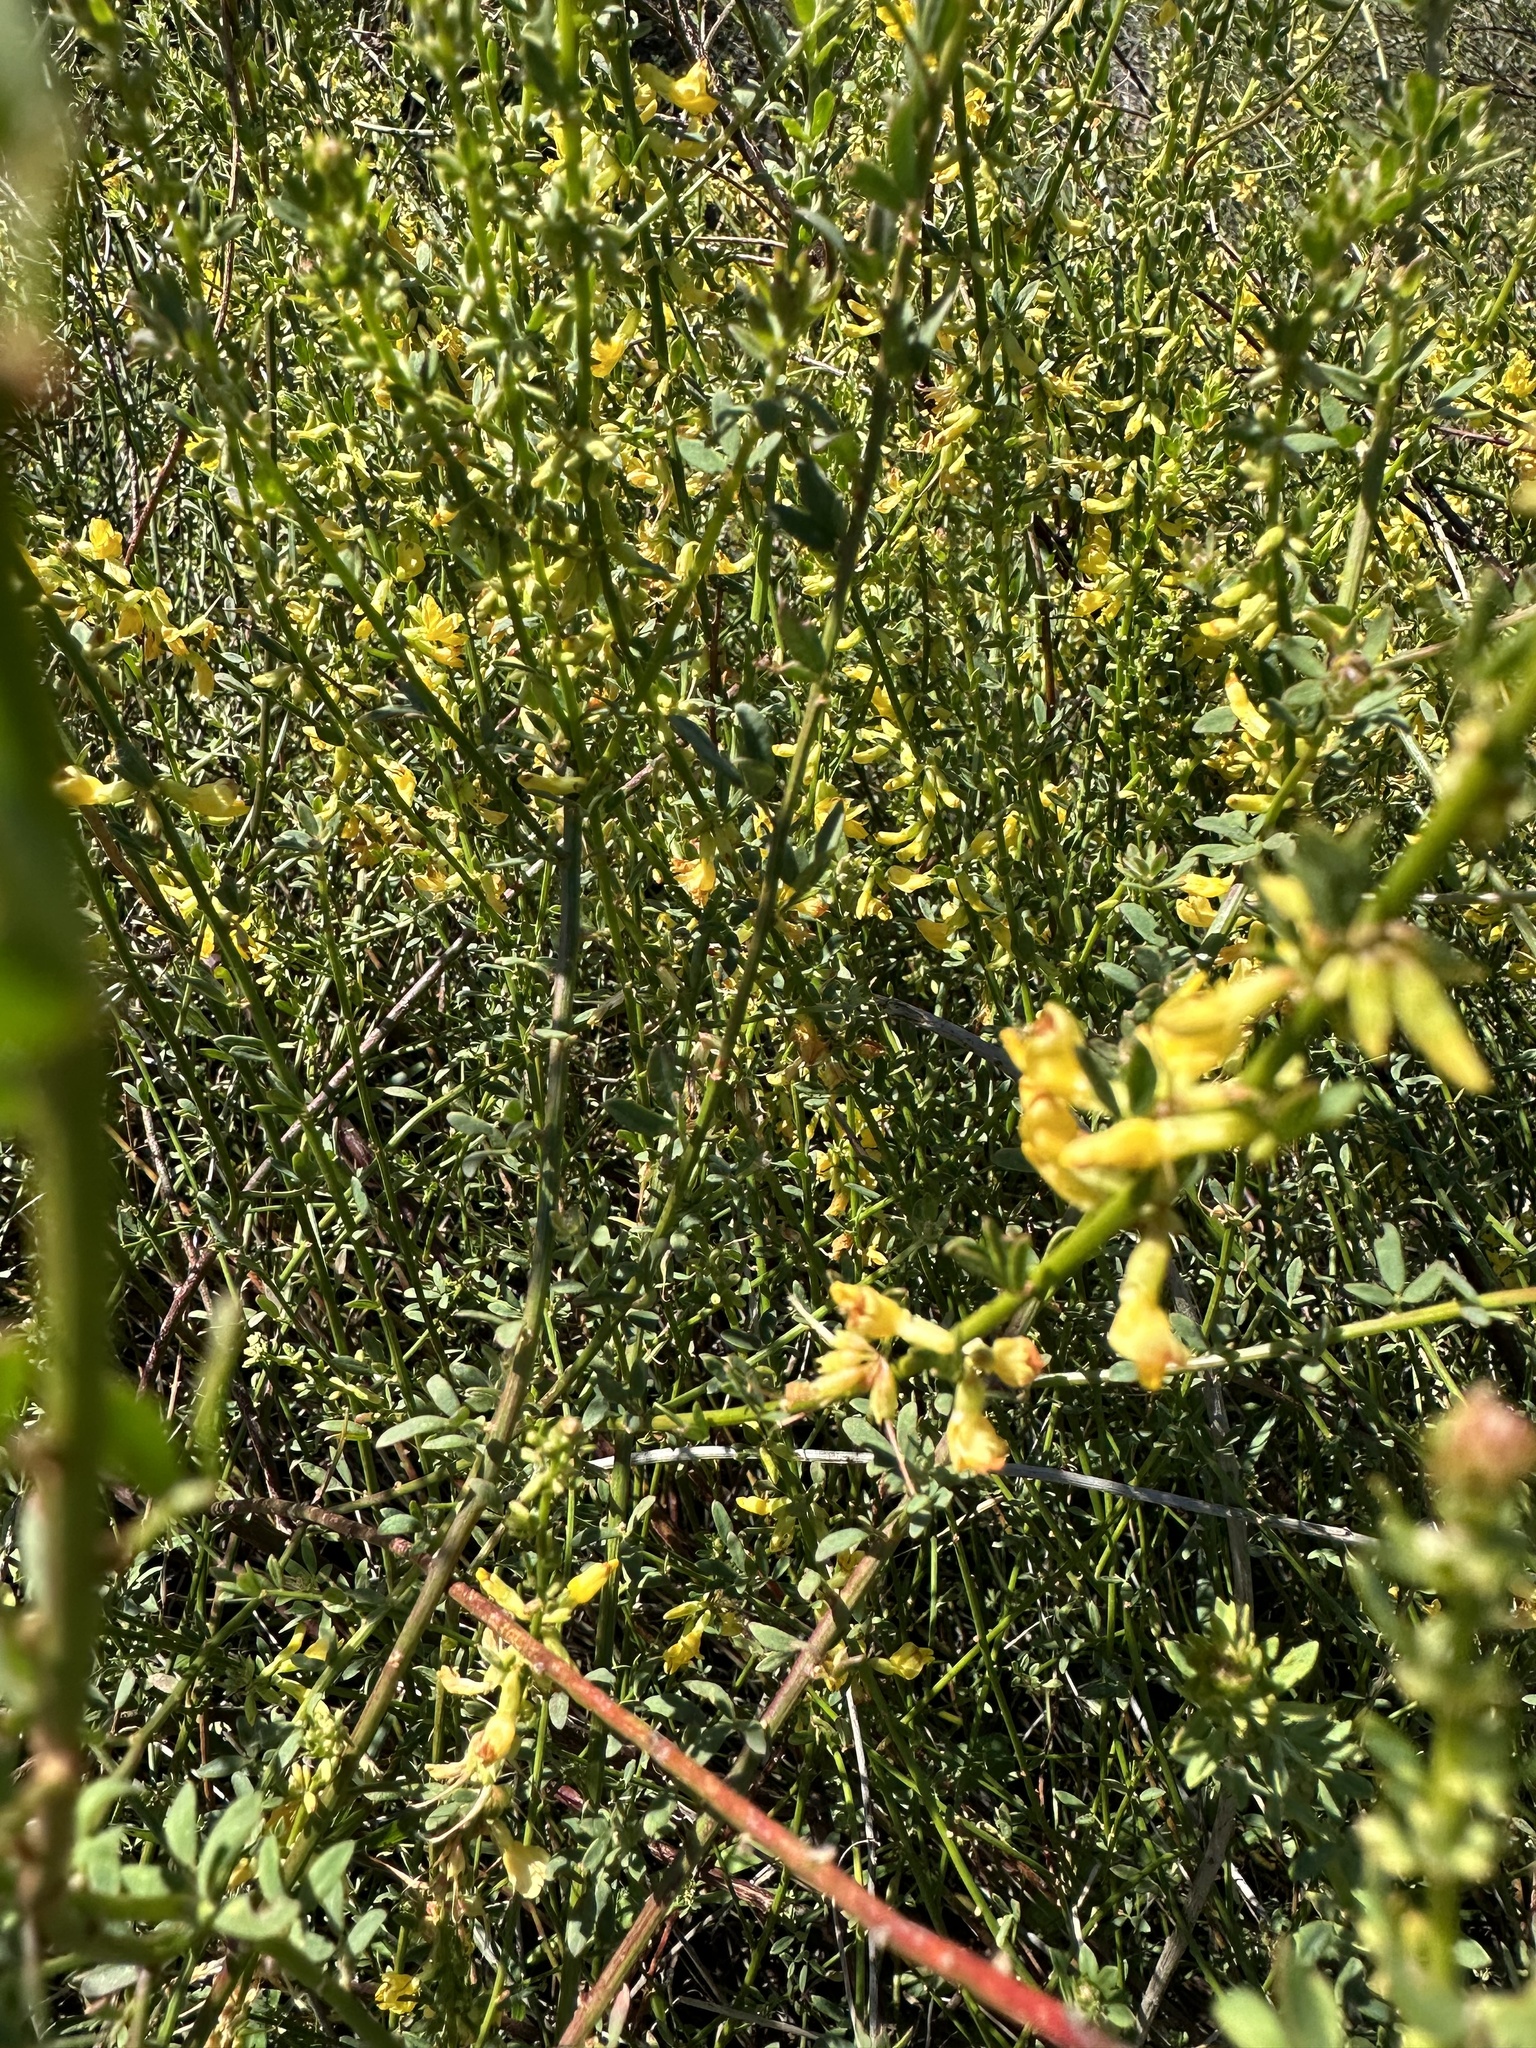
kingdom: Plantae
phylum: Tracheophyta
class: Magnoliopsida
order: Fabales
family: Fabaceae
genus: Acmispon
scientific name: Acmispon glaber
